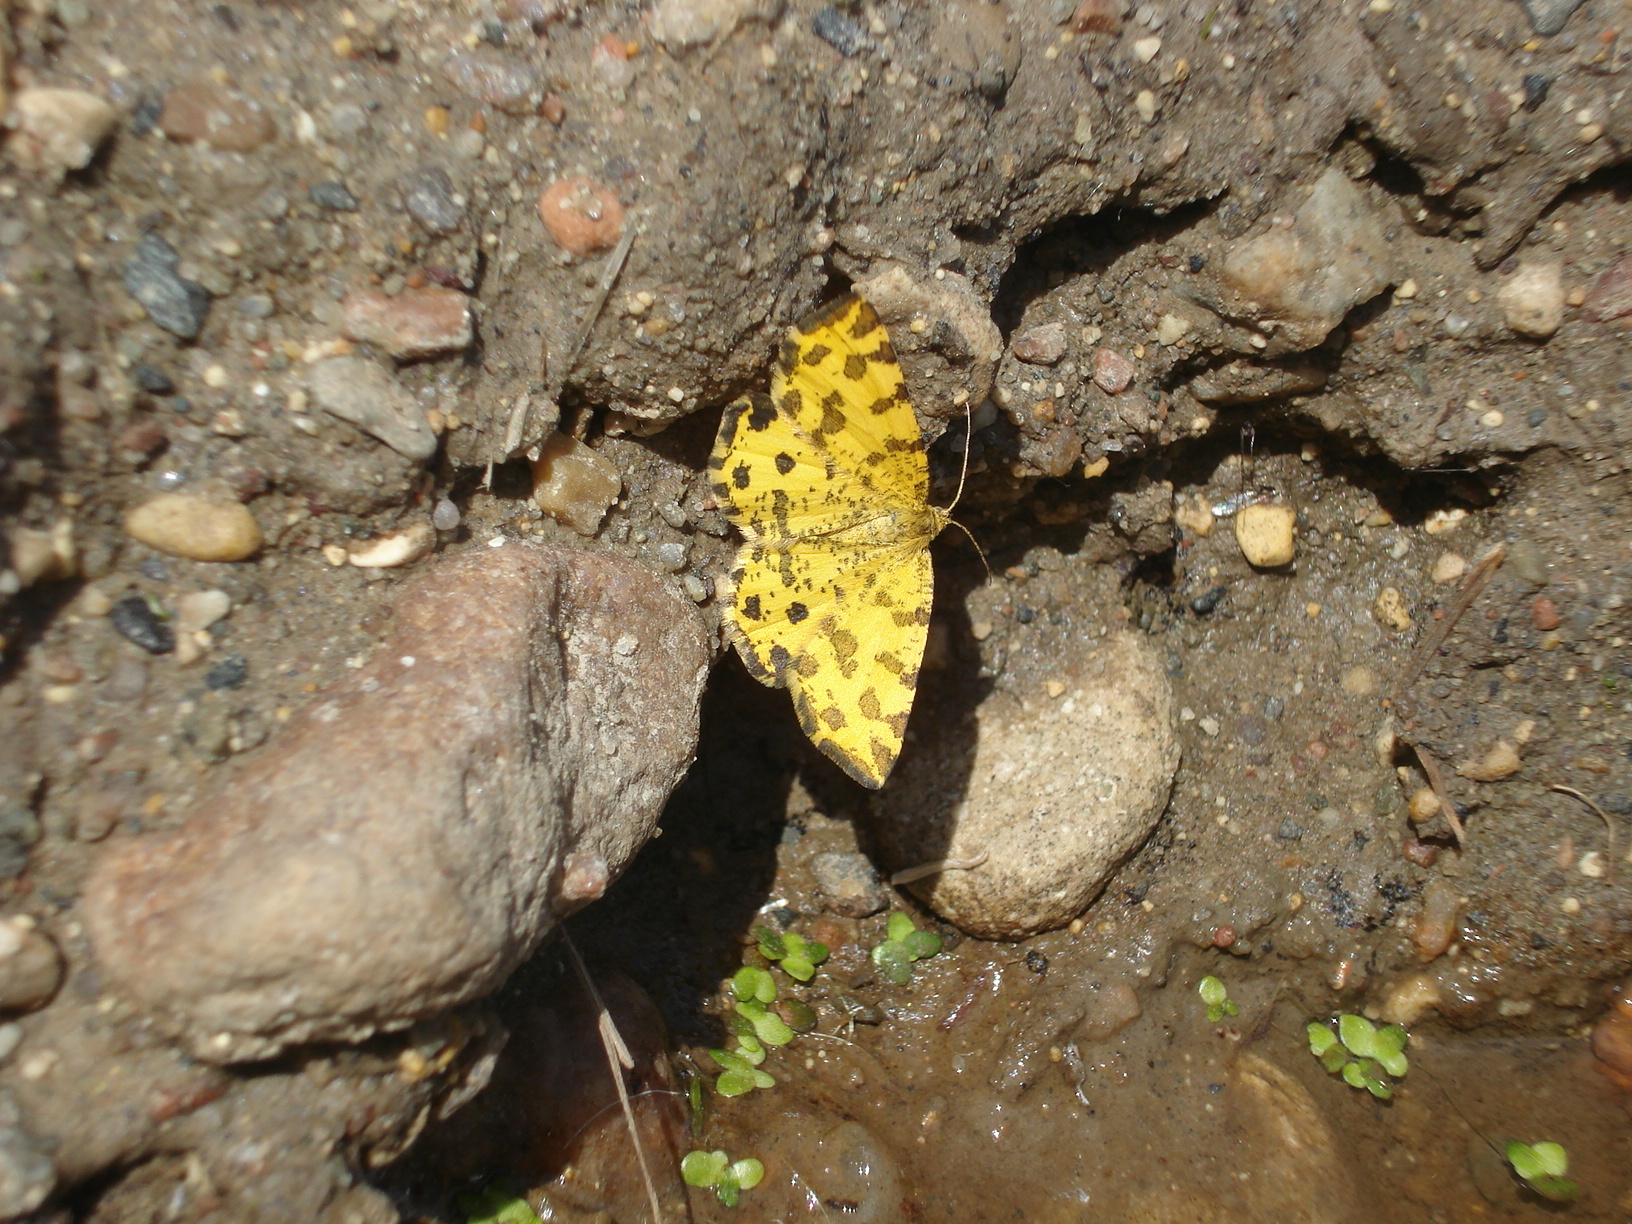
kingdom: Animalia
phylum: Arthropoda
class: Insecta
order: Lepidoptera
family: Geometridae
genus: Pseudopanthera
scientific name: Pseudopanthera macularia
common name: Speckled yellow
